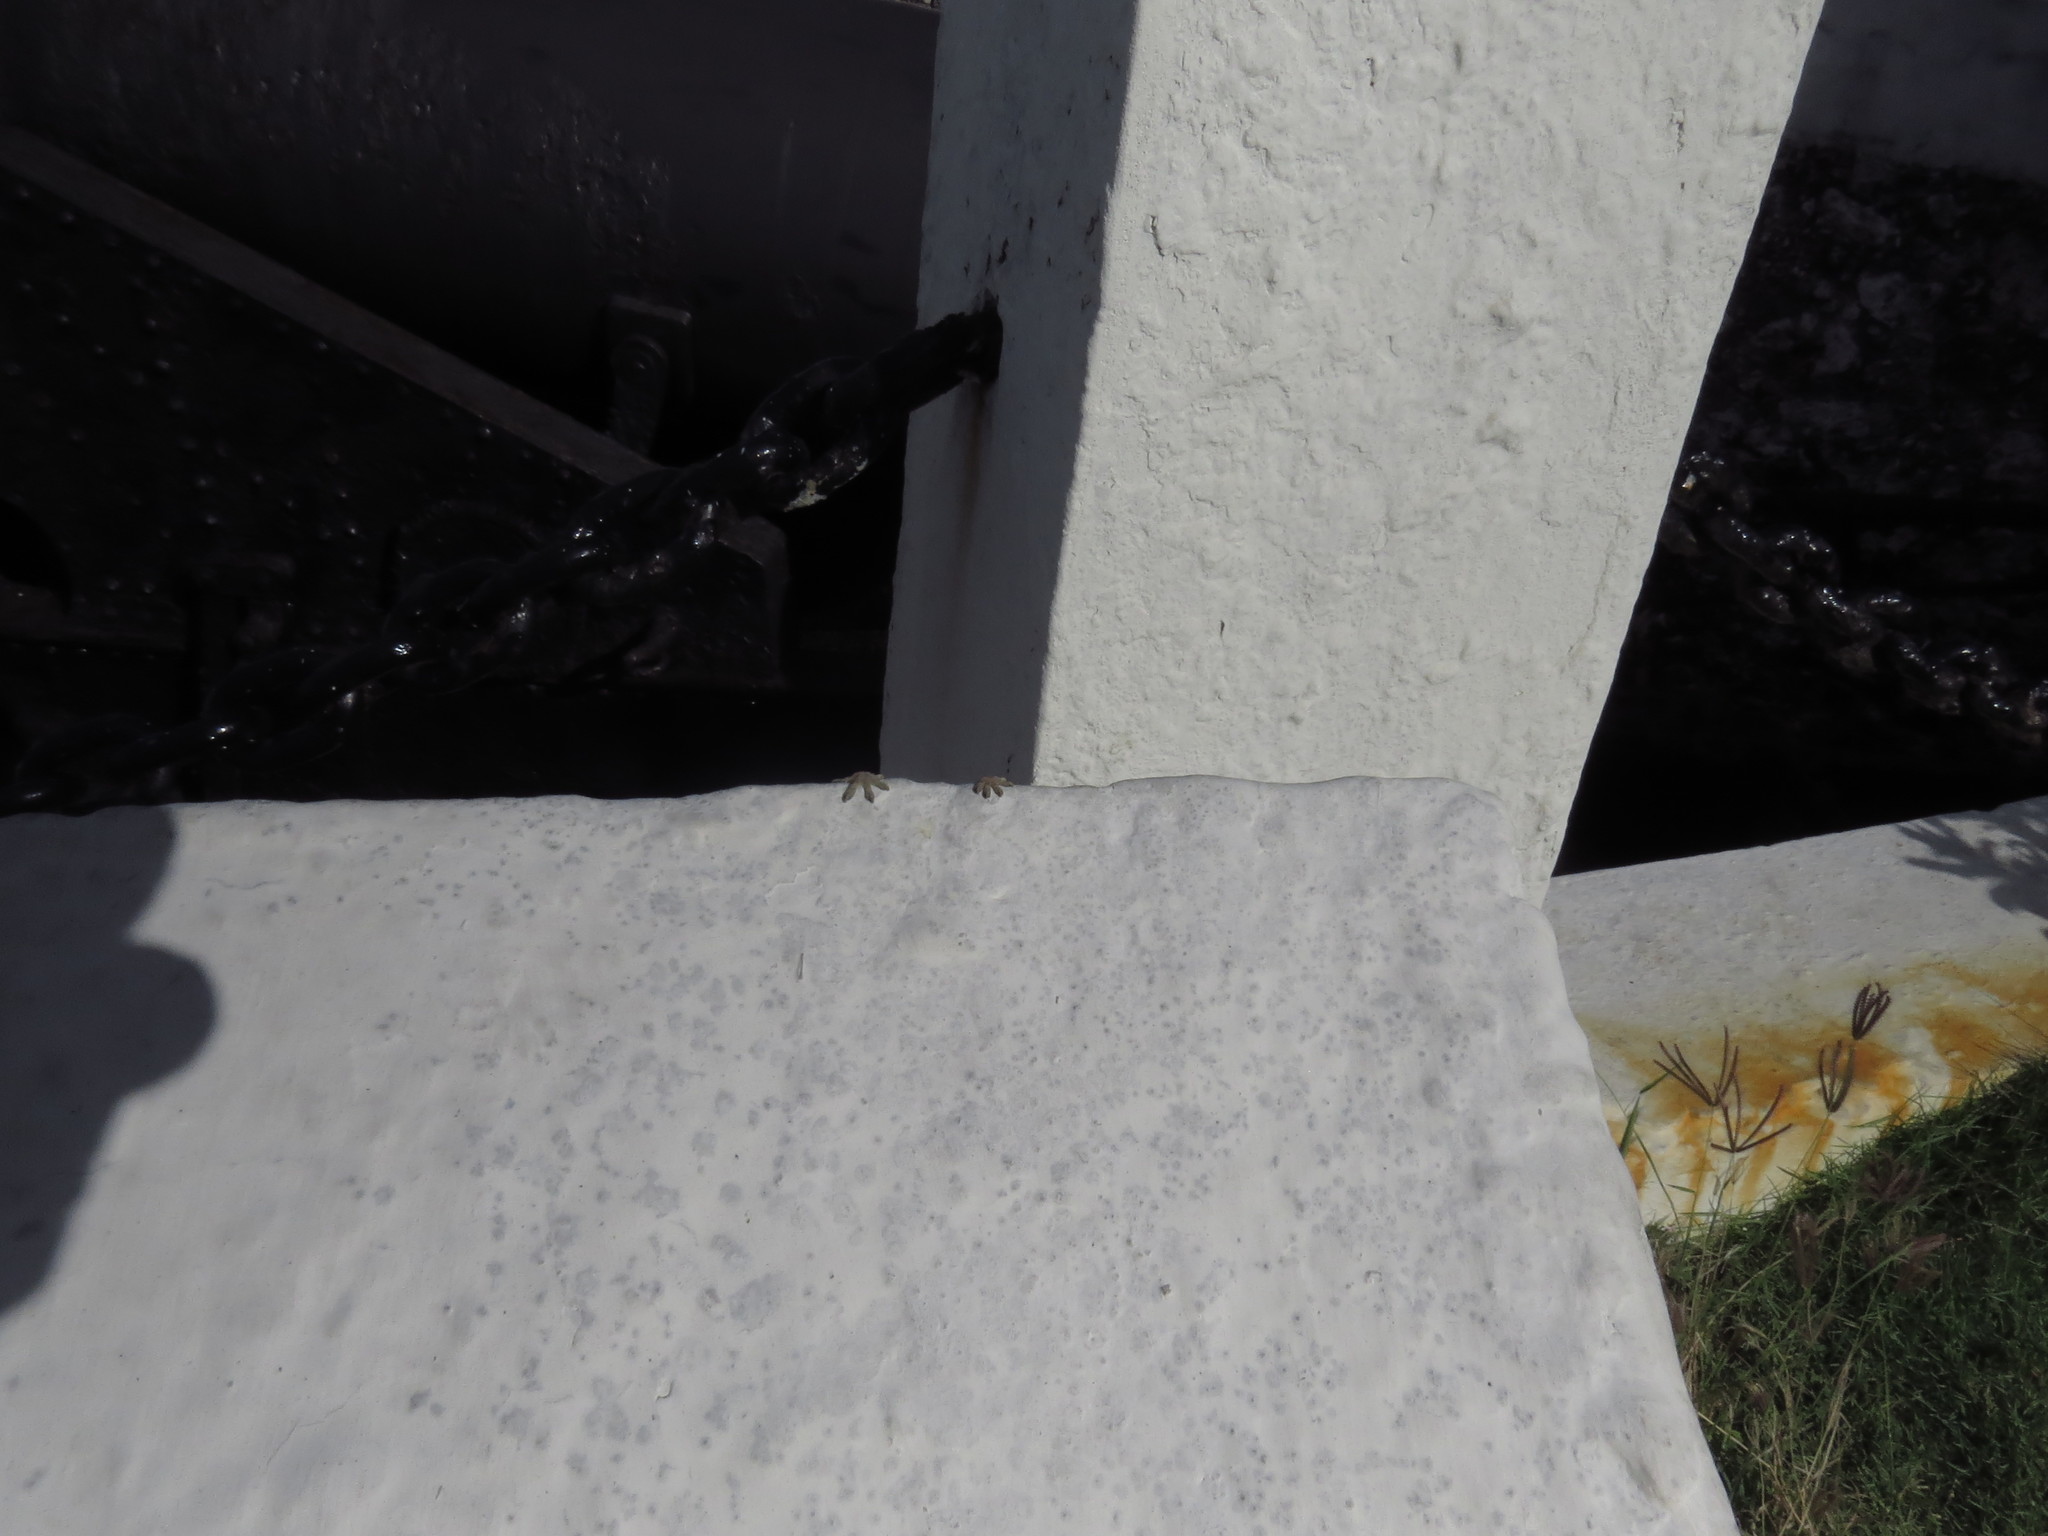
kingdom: Animalia
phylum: Chordata
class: Squamata
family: Gekkonidae
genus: Hemidactylus
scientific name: Hemidactylus mabouia
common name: House gecko
